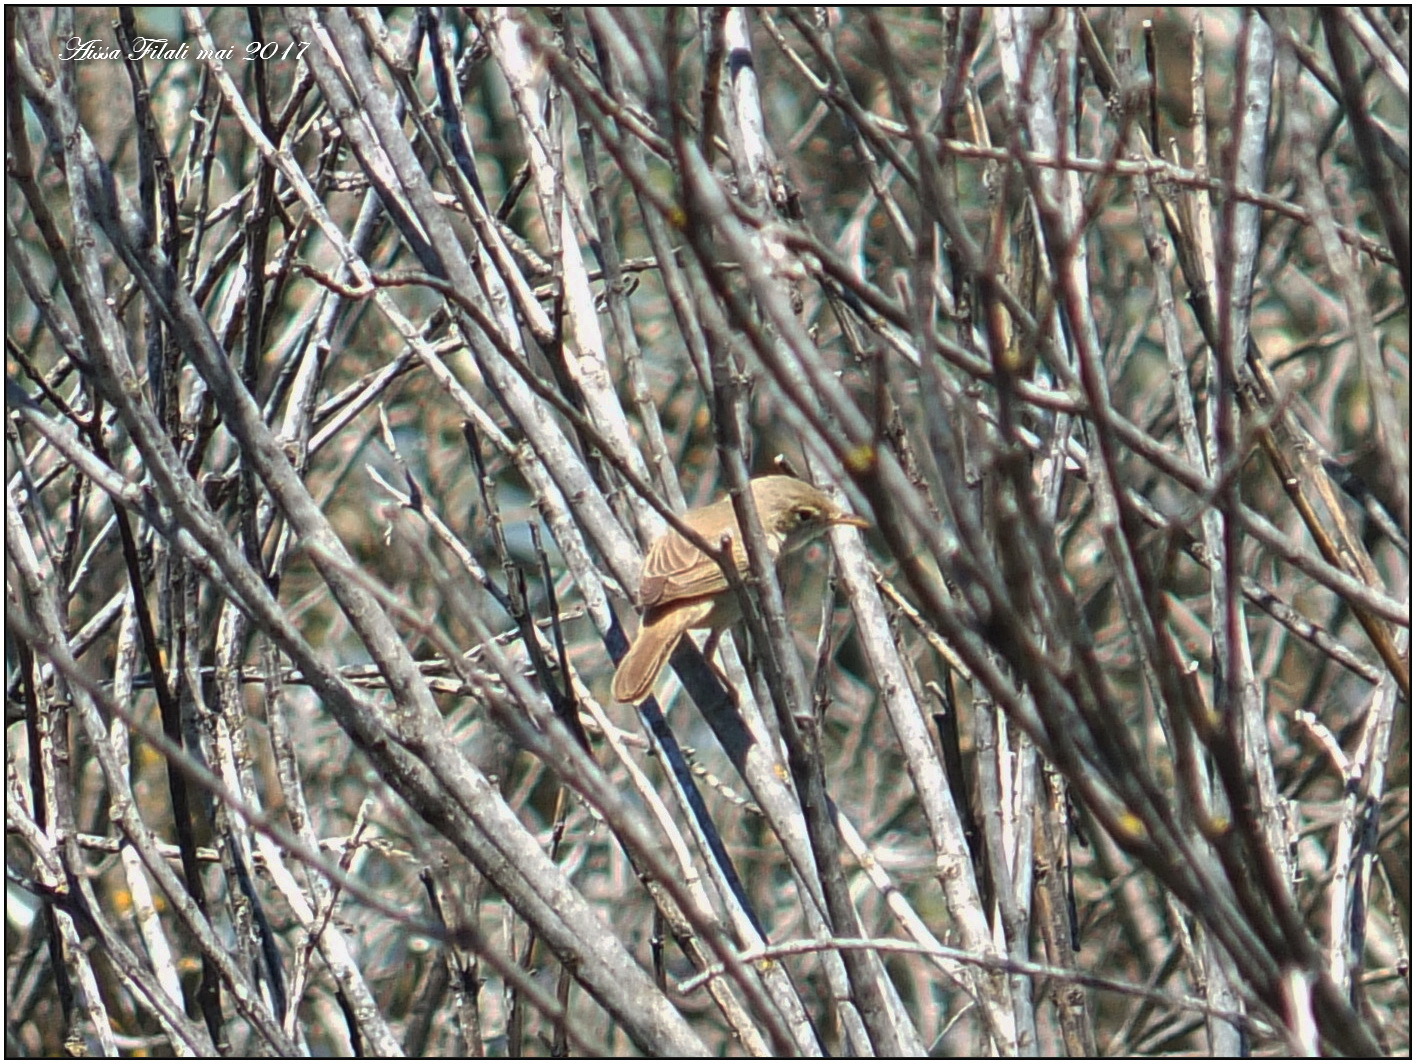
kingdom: Animalia
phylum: Chordata
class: Aves
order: Passeriformes
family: Acrocephalidae
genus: Acrocephalus
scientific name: Acrocephalus scirpaceus
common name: Eurasian reed warbler
